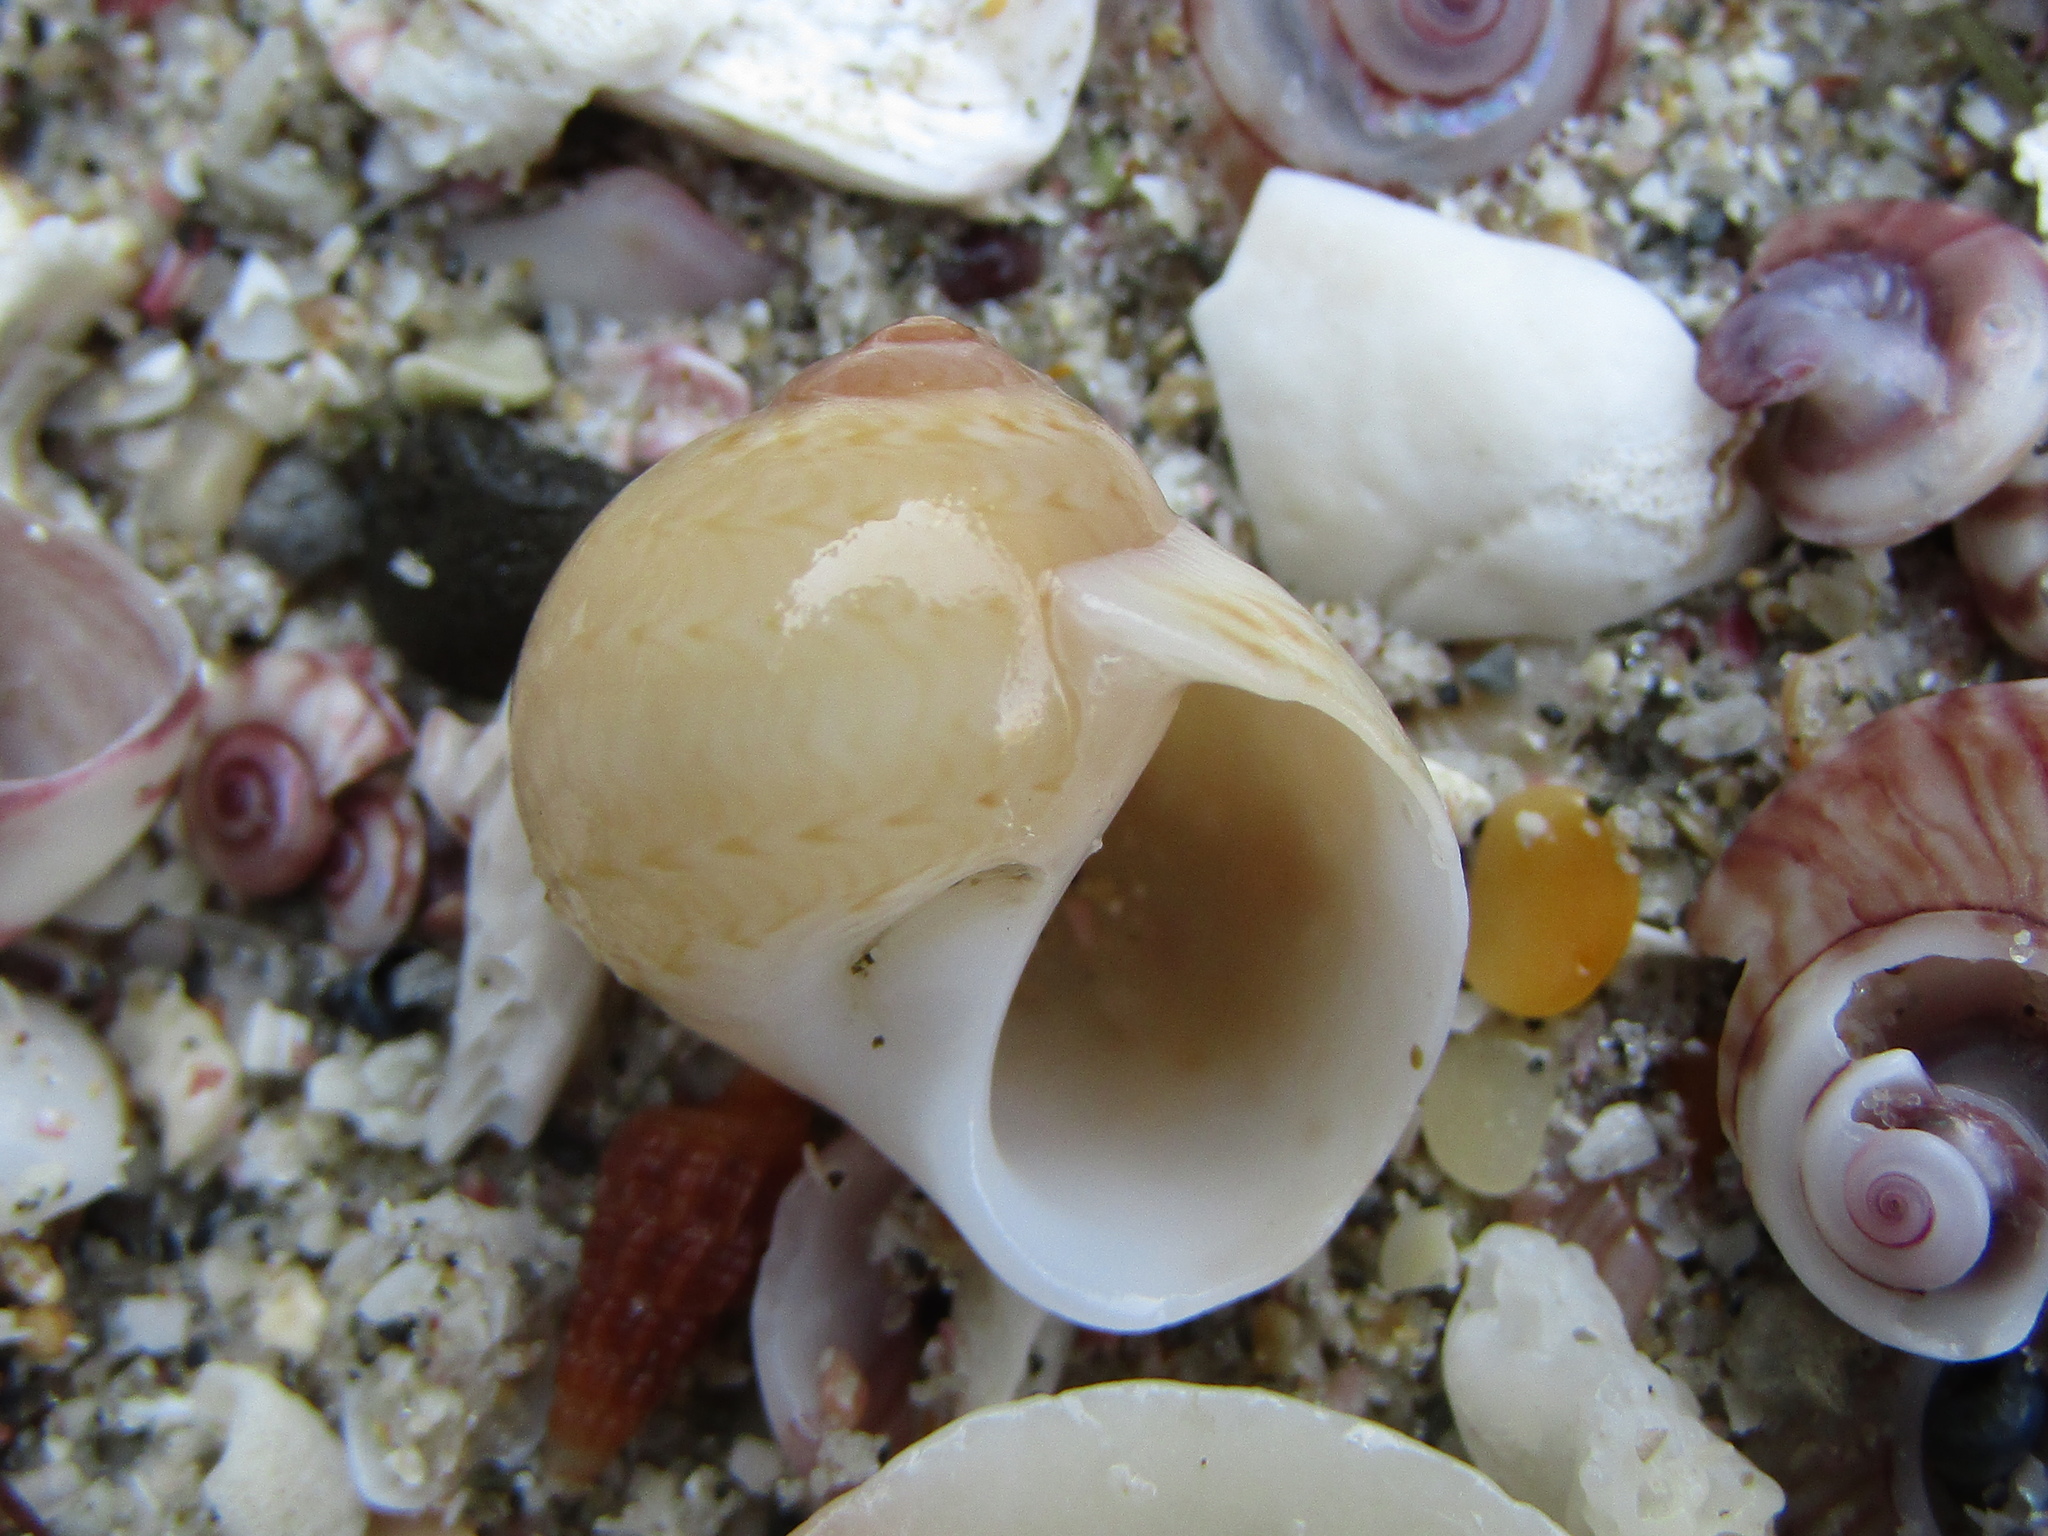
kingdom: Animalia
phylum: Mollusca
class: Gastropoda
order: Littorinimorpha
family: Naticidae
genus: Tanea
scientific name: Tanea zelandica
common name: New zealand moonsnail
